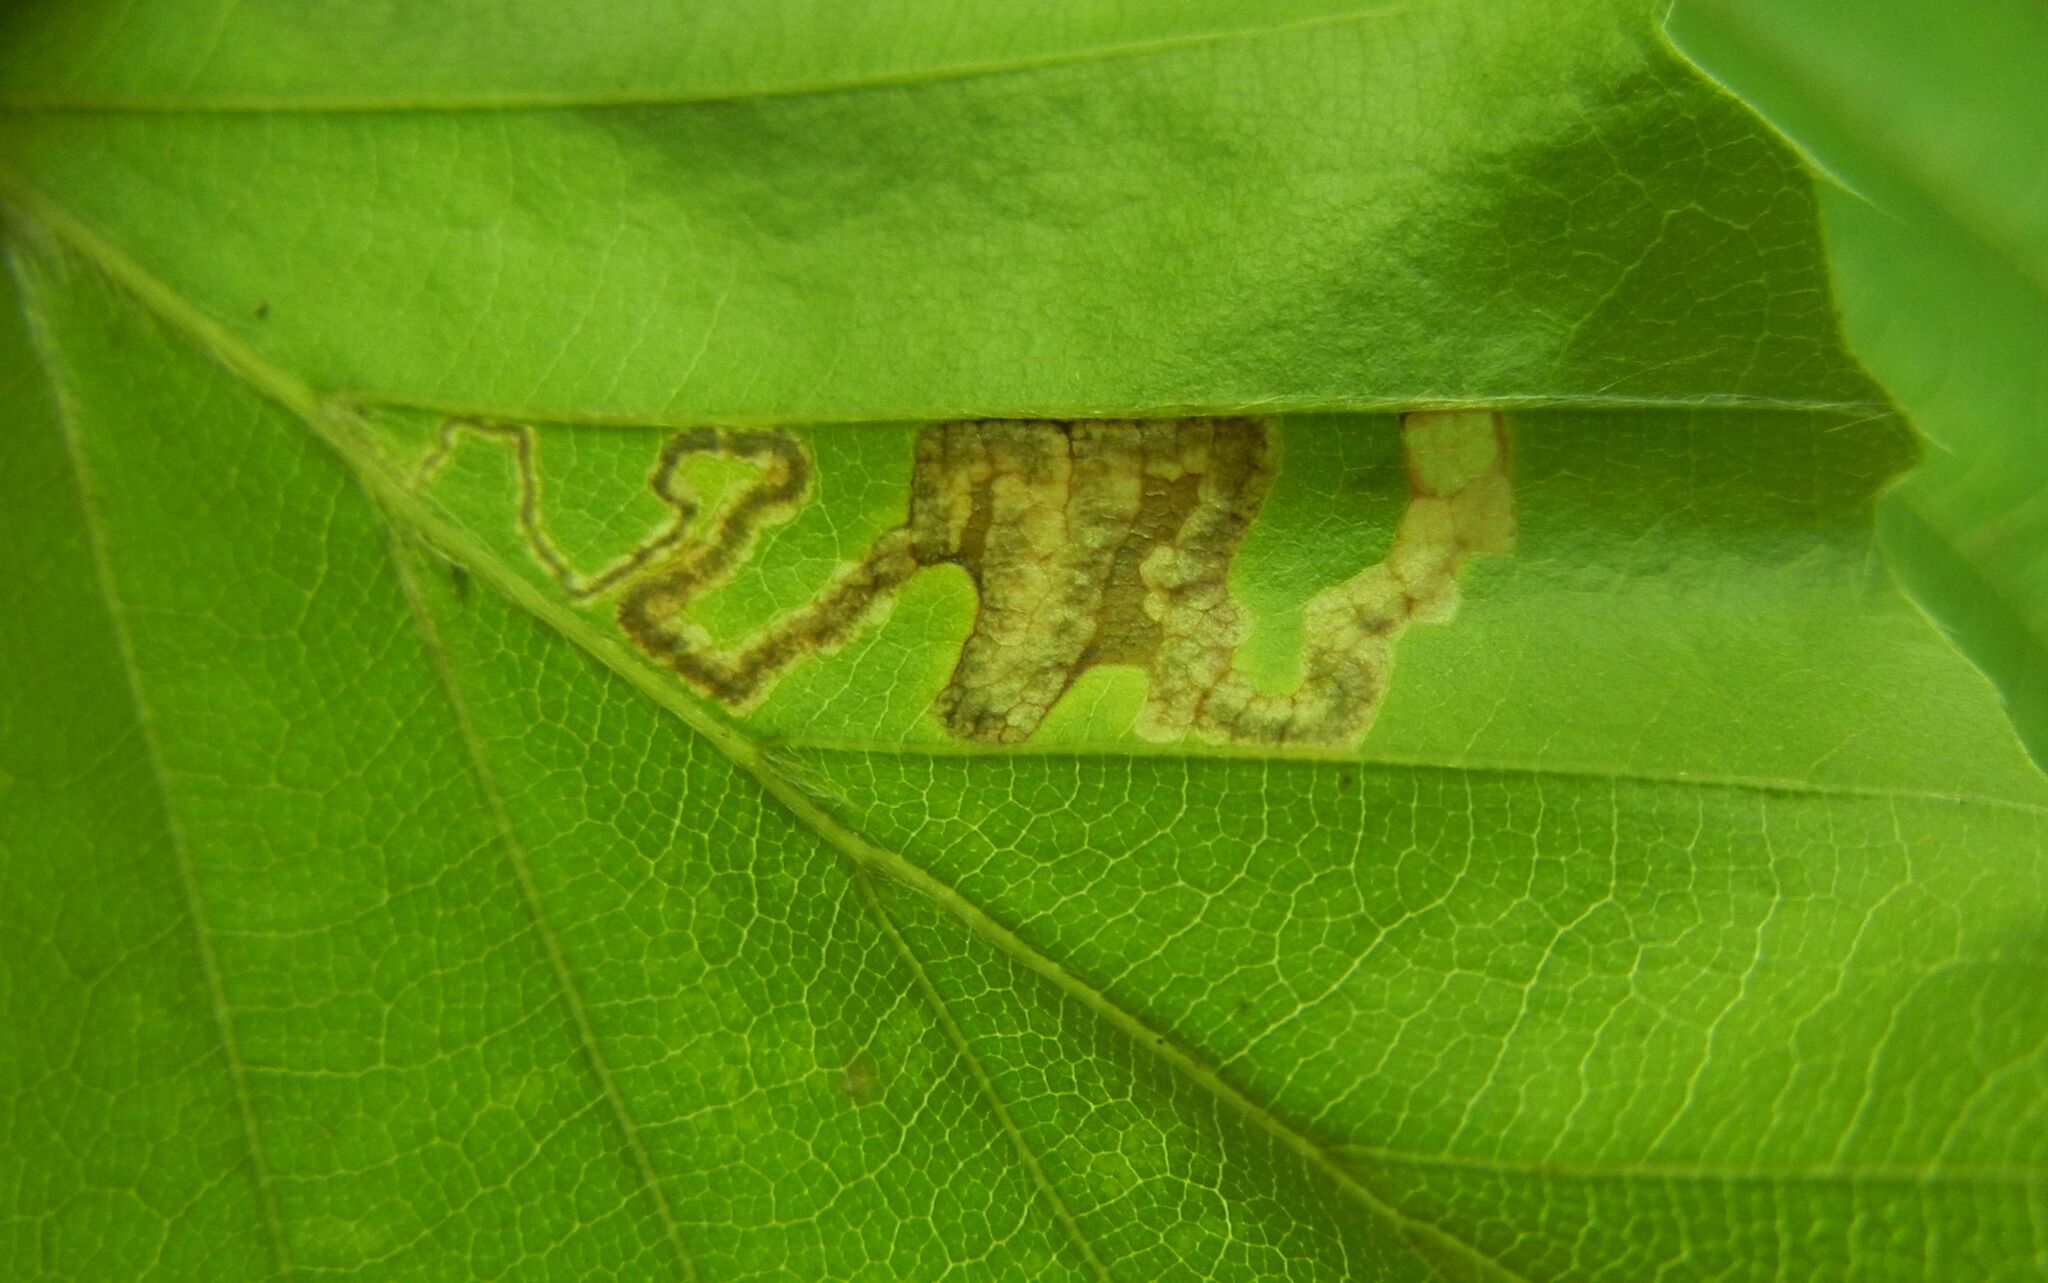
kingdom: Animalia
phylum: Arthropoda
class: Insecta
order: Lepidoptera
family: Nepticulidae
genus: Stigmella
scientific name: Stigmella tityrella
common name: Small beech pigmy
